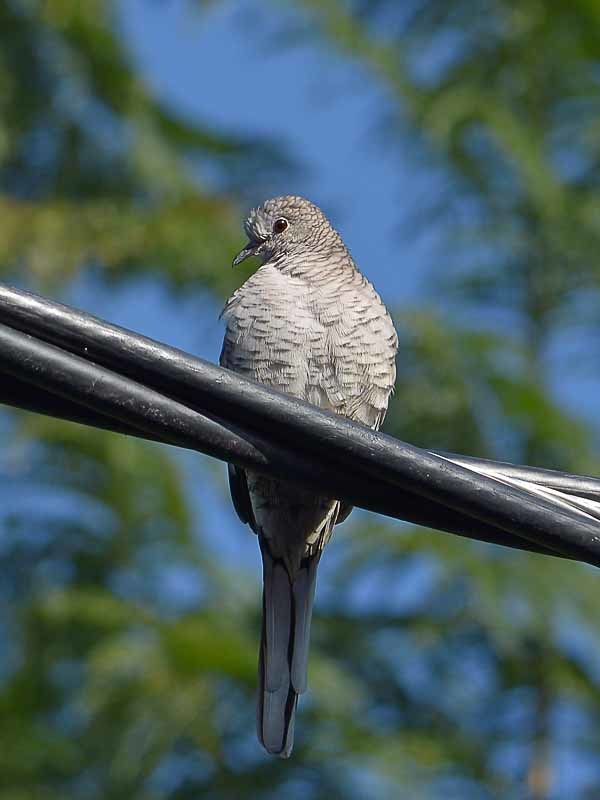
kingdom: Animalia
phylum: Chordata
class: Aves
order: Columbiformes
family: Columbidae
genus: Columbina
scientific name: Columbina inca
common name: Inca dove
